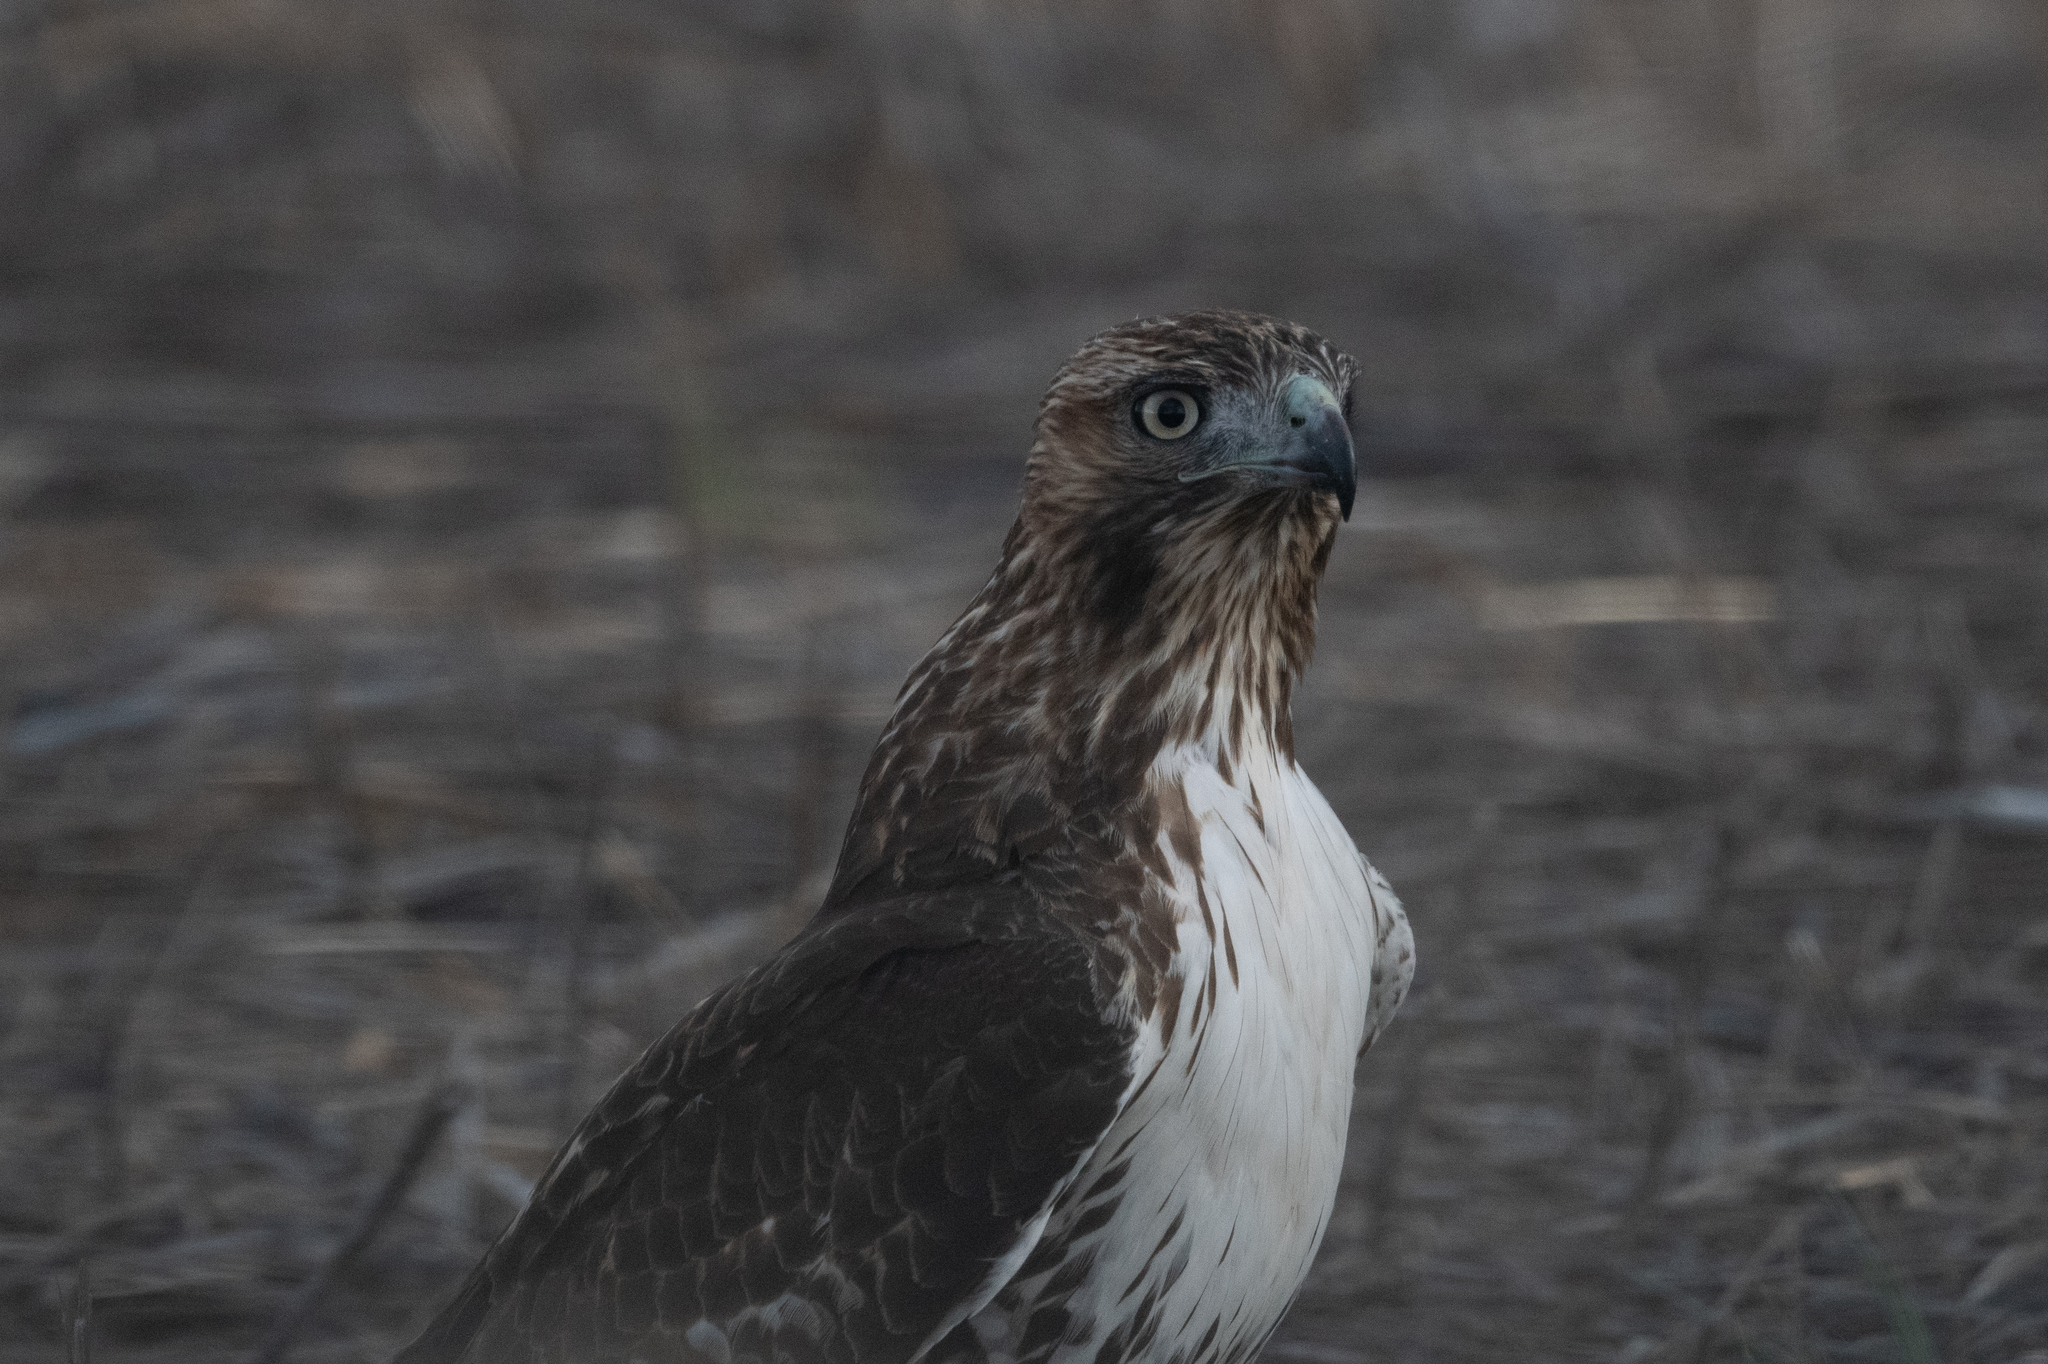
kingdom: Animalia
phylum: Chordata
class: Aves
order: Accipitriformes
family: Accipitridae
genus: Buteo
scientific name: Buteo jamaicensis
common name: Red-tailed hawk
